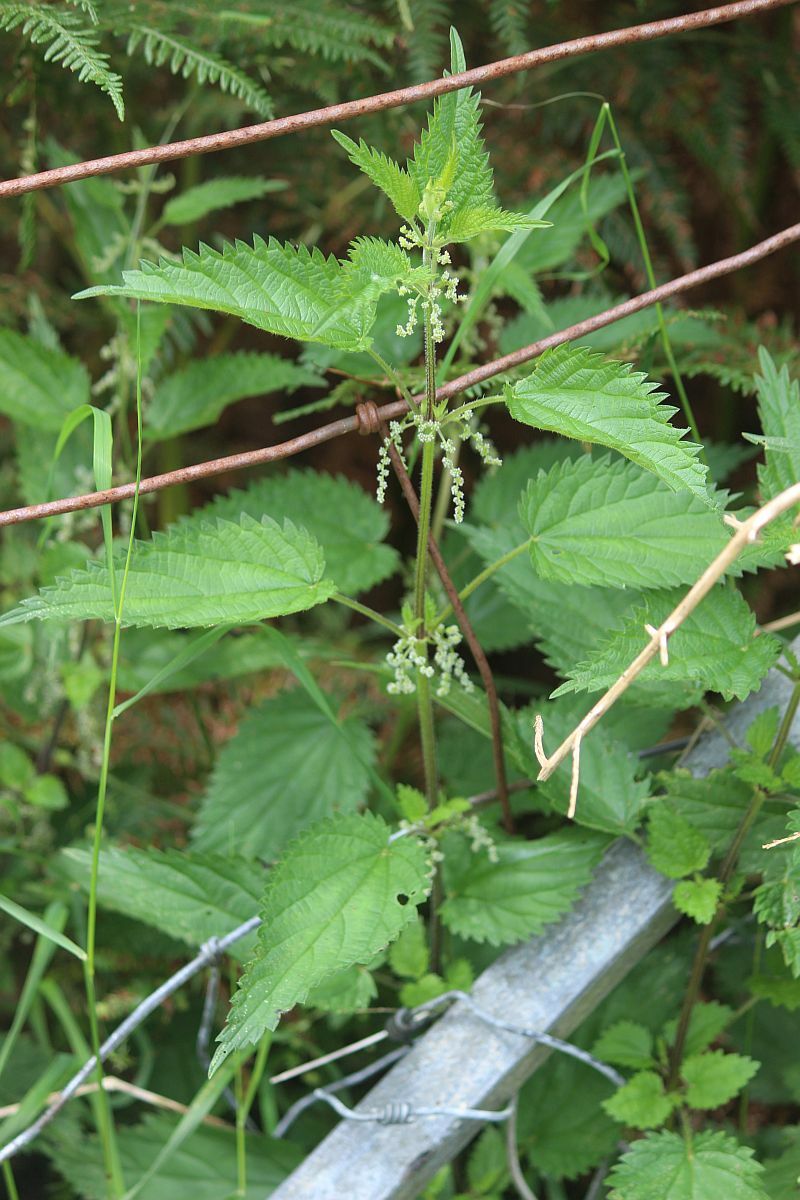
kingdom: Plantae
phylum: Tracheophyta
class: Magnoliopsida
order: Rosales
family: Urticaceae
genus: Urtica
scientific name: Urtica dioica
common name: Common nettle
